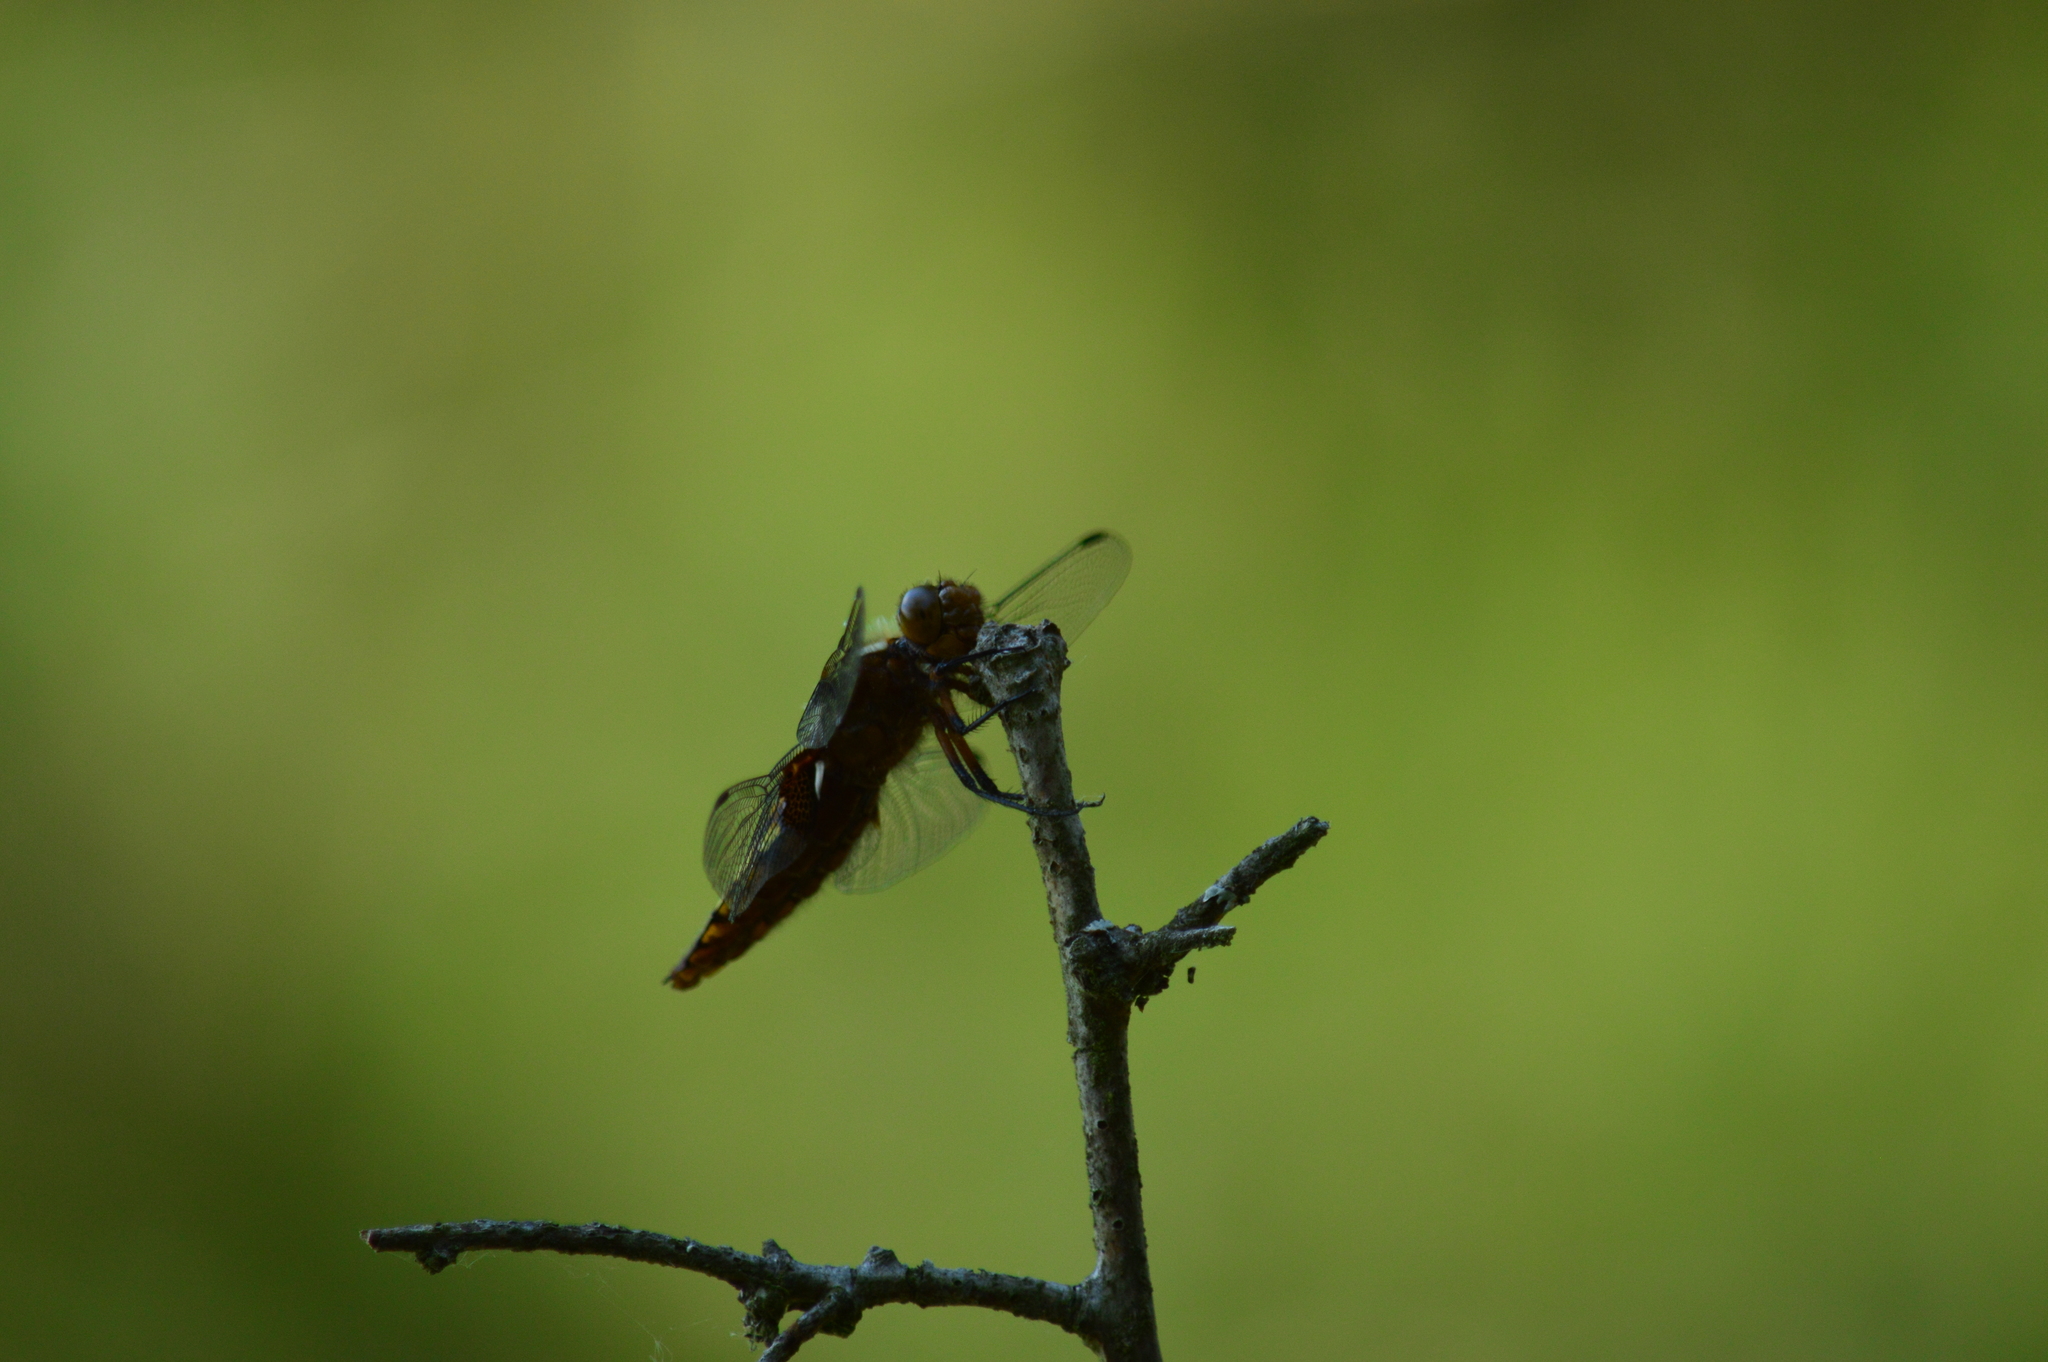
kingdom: Animalia
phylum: Arthropoda
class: Insecta
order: Odonata
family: Libellulidae
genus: Libellula
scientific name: Libellula depressa
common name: Broad-bodied chaser
